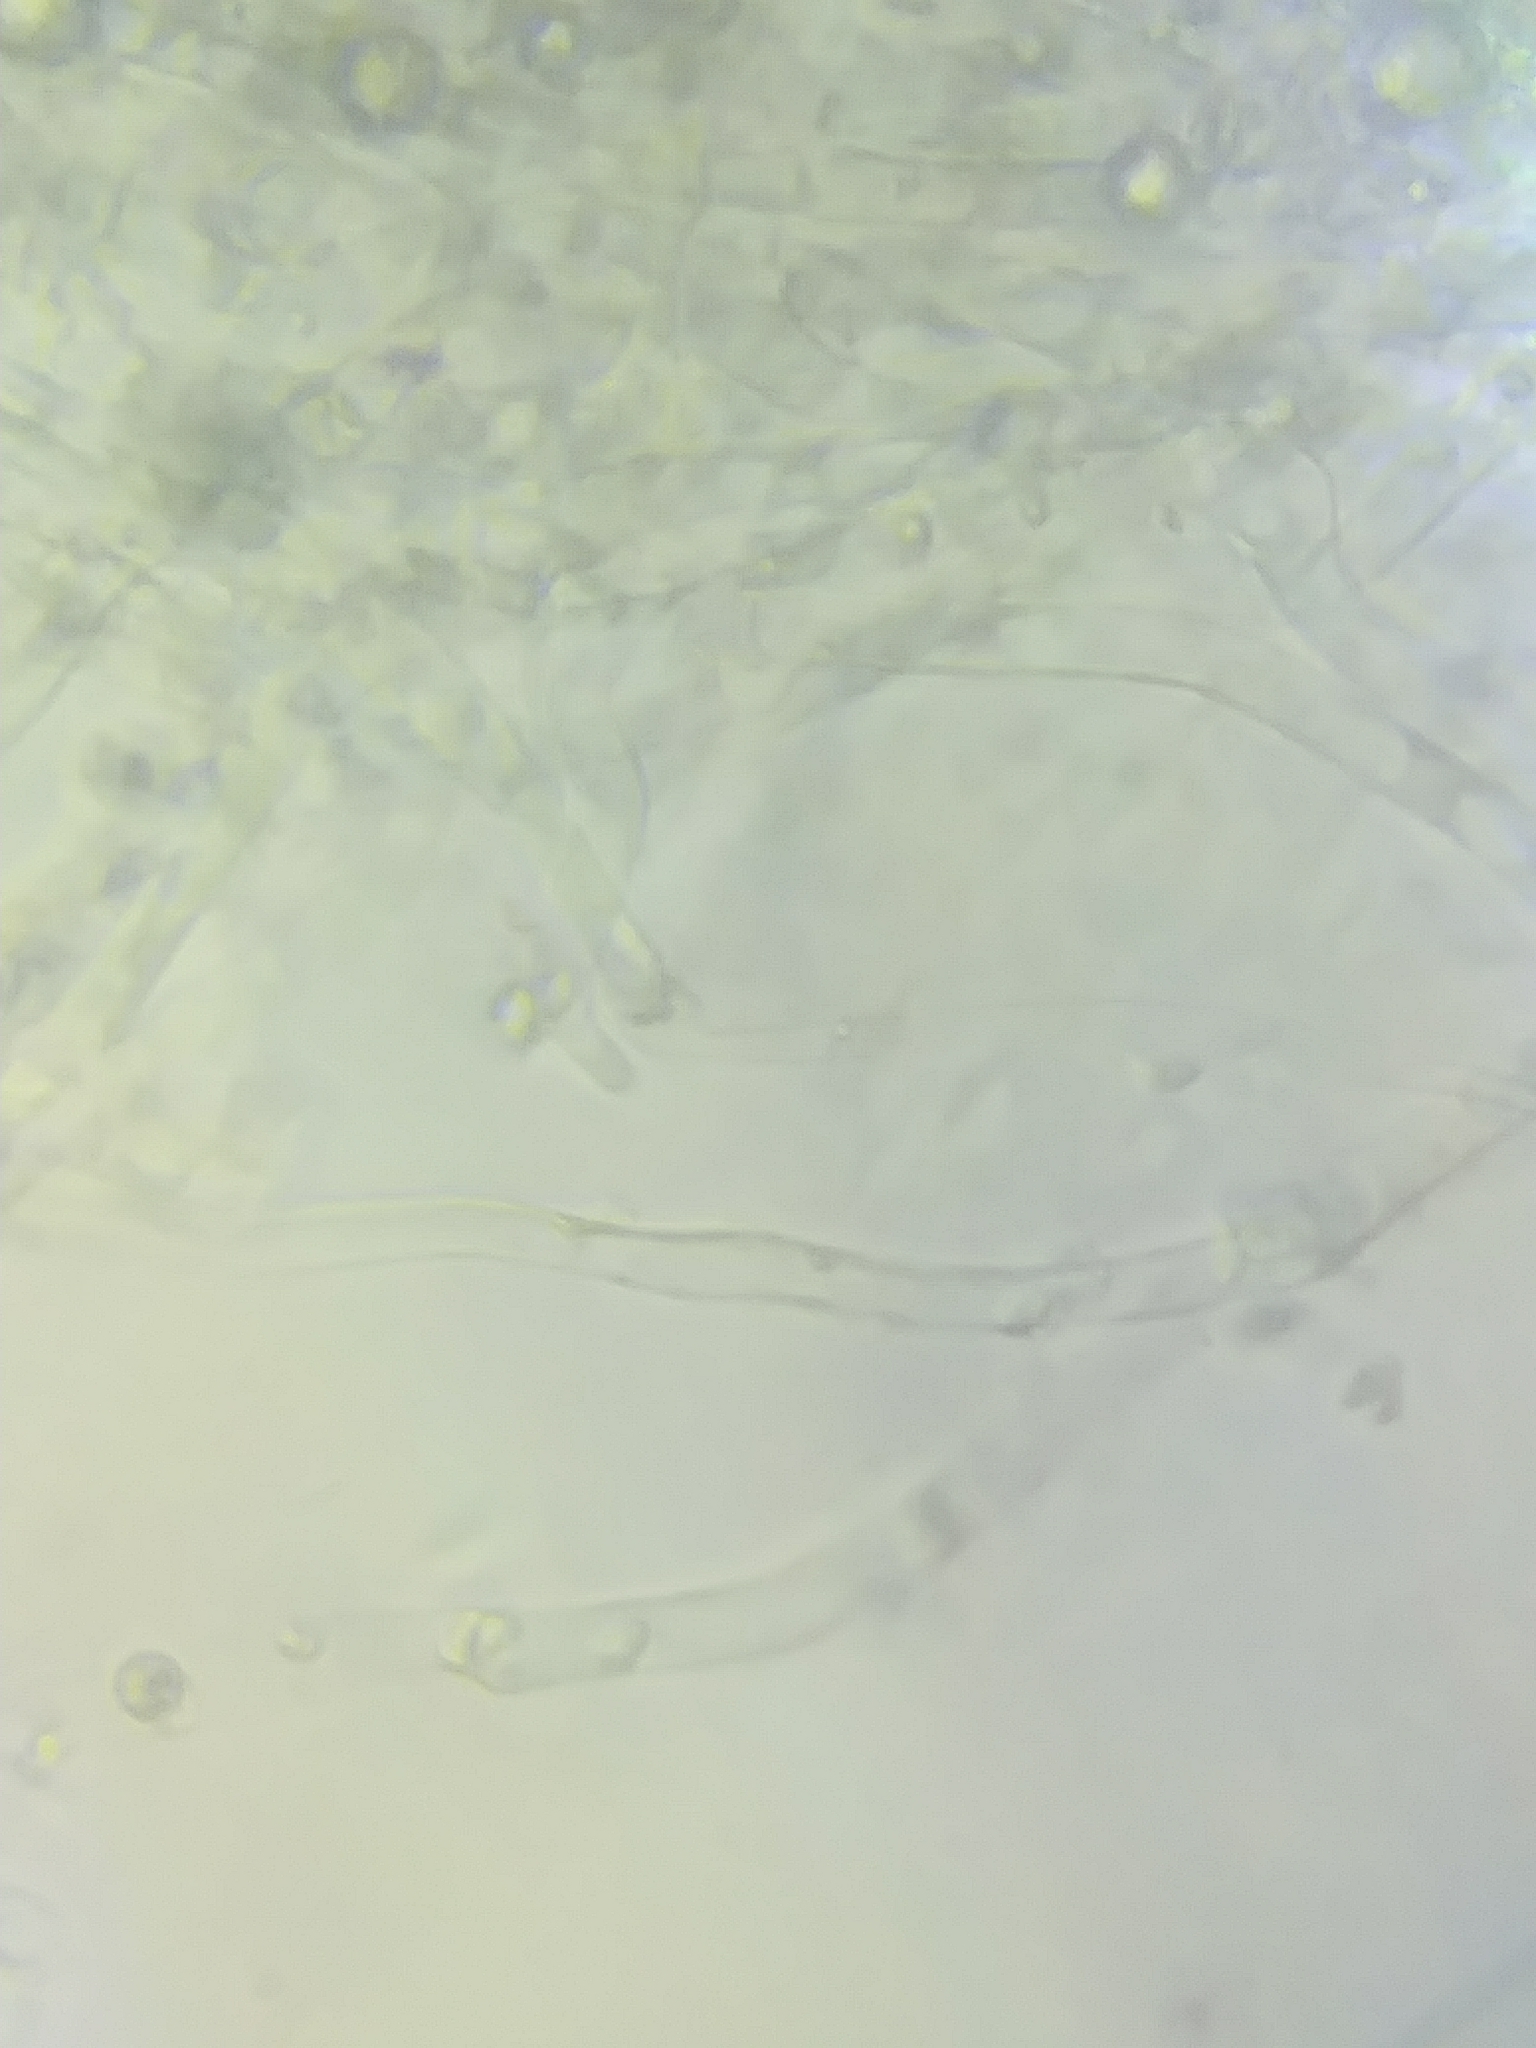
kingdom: Fungi
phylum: Basidiomycota
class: Agaricomycetes
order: Agaricales
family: Omphalotaceae
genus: Connopus
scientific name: Connopus acervatus
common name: Cluster cap
